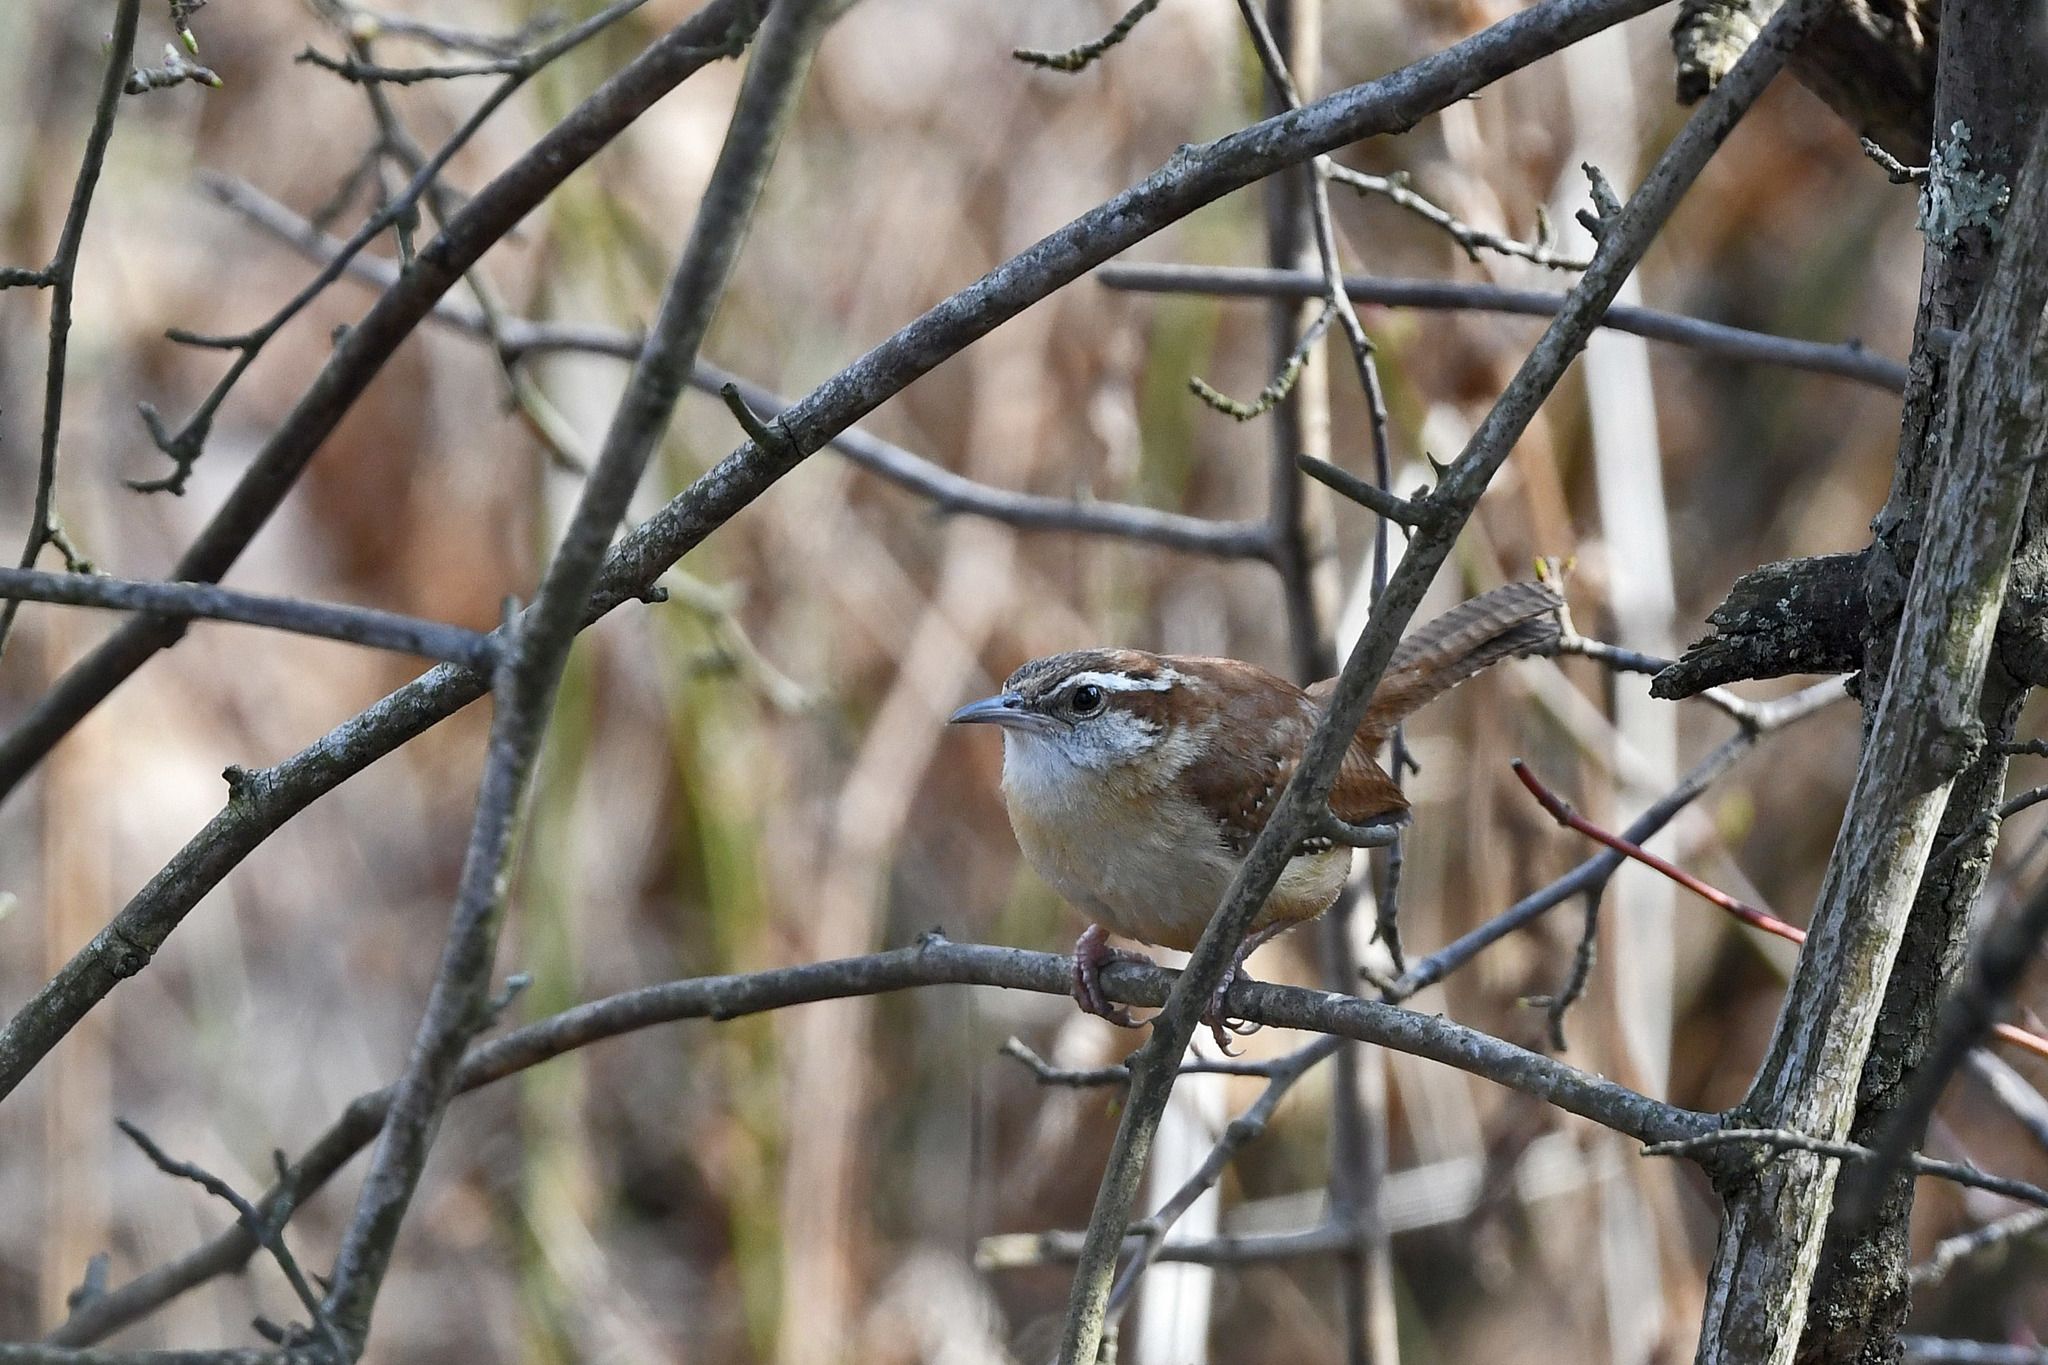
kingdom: Animalia
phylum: Chordata
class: Aves
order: Passeriformes
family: Troglodytidae
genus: Thryothorus
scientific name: Thryothorus ludovicianus
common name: Carolina wren
